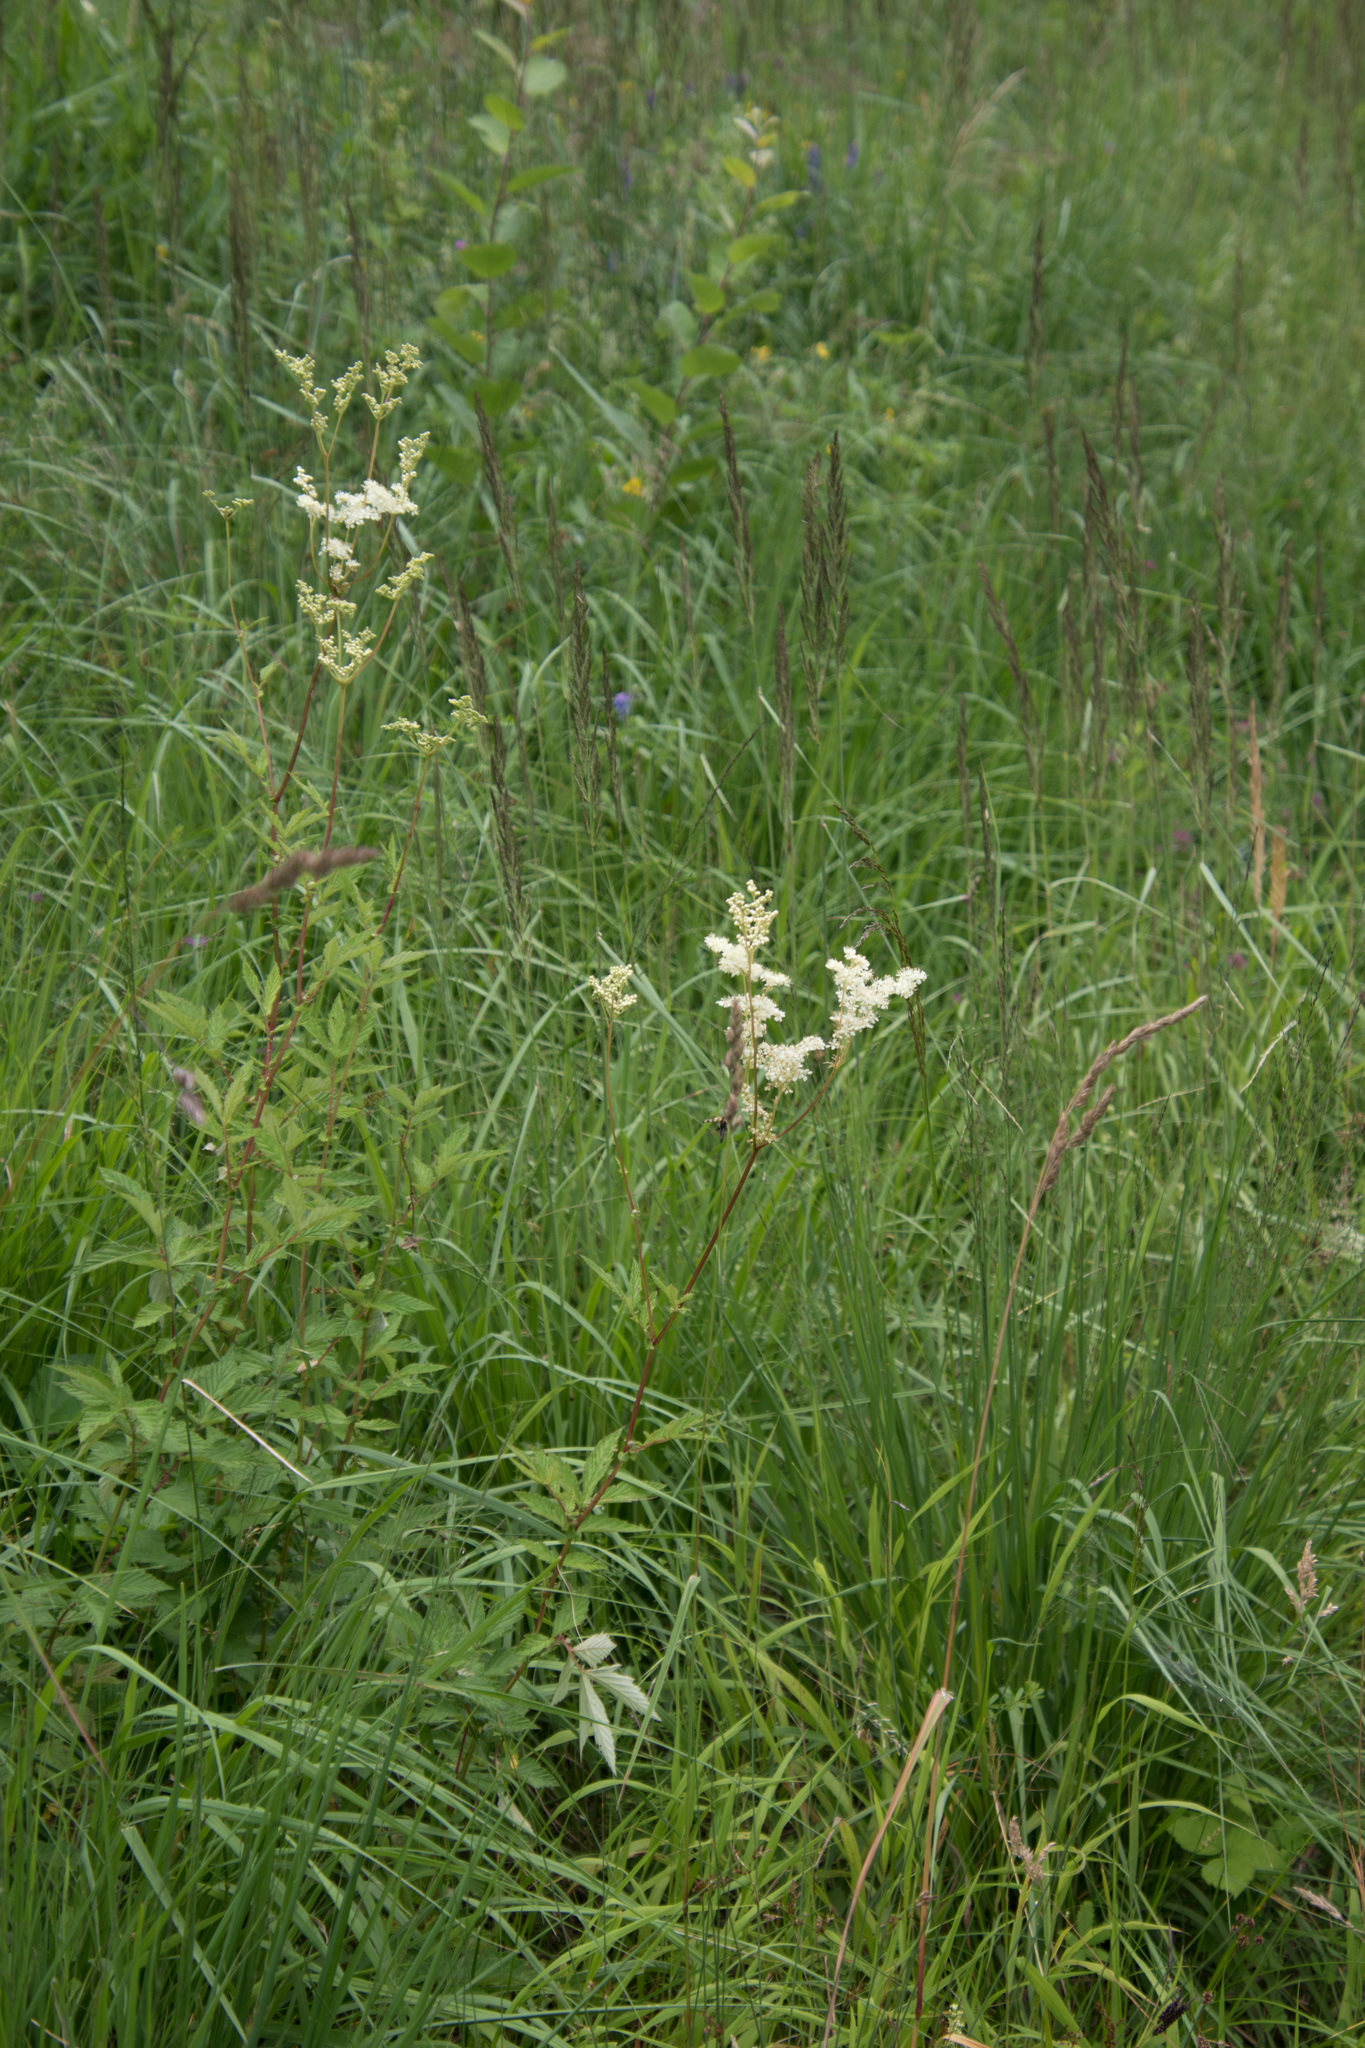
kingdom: Plantae
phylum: Tracheophyta
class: Magnoliopsida
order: Rosales
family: Rosaceae
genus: Filipendula
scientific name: Filipendula ulmaria
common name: Meadowsweet
